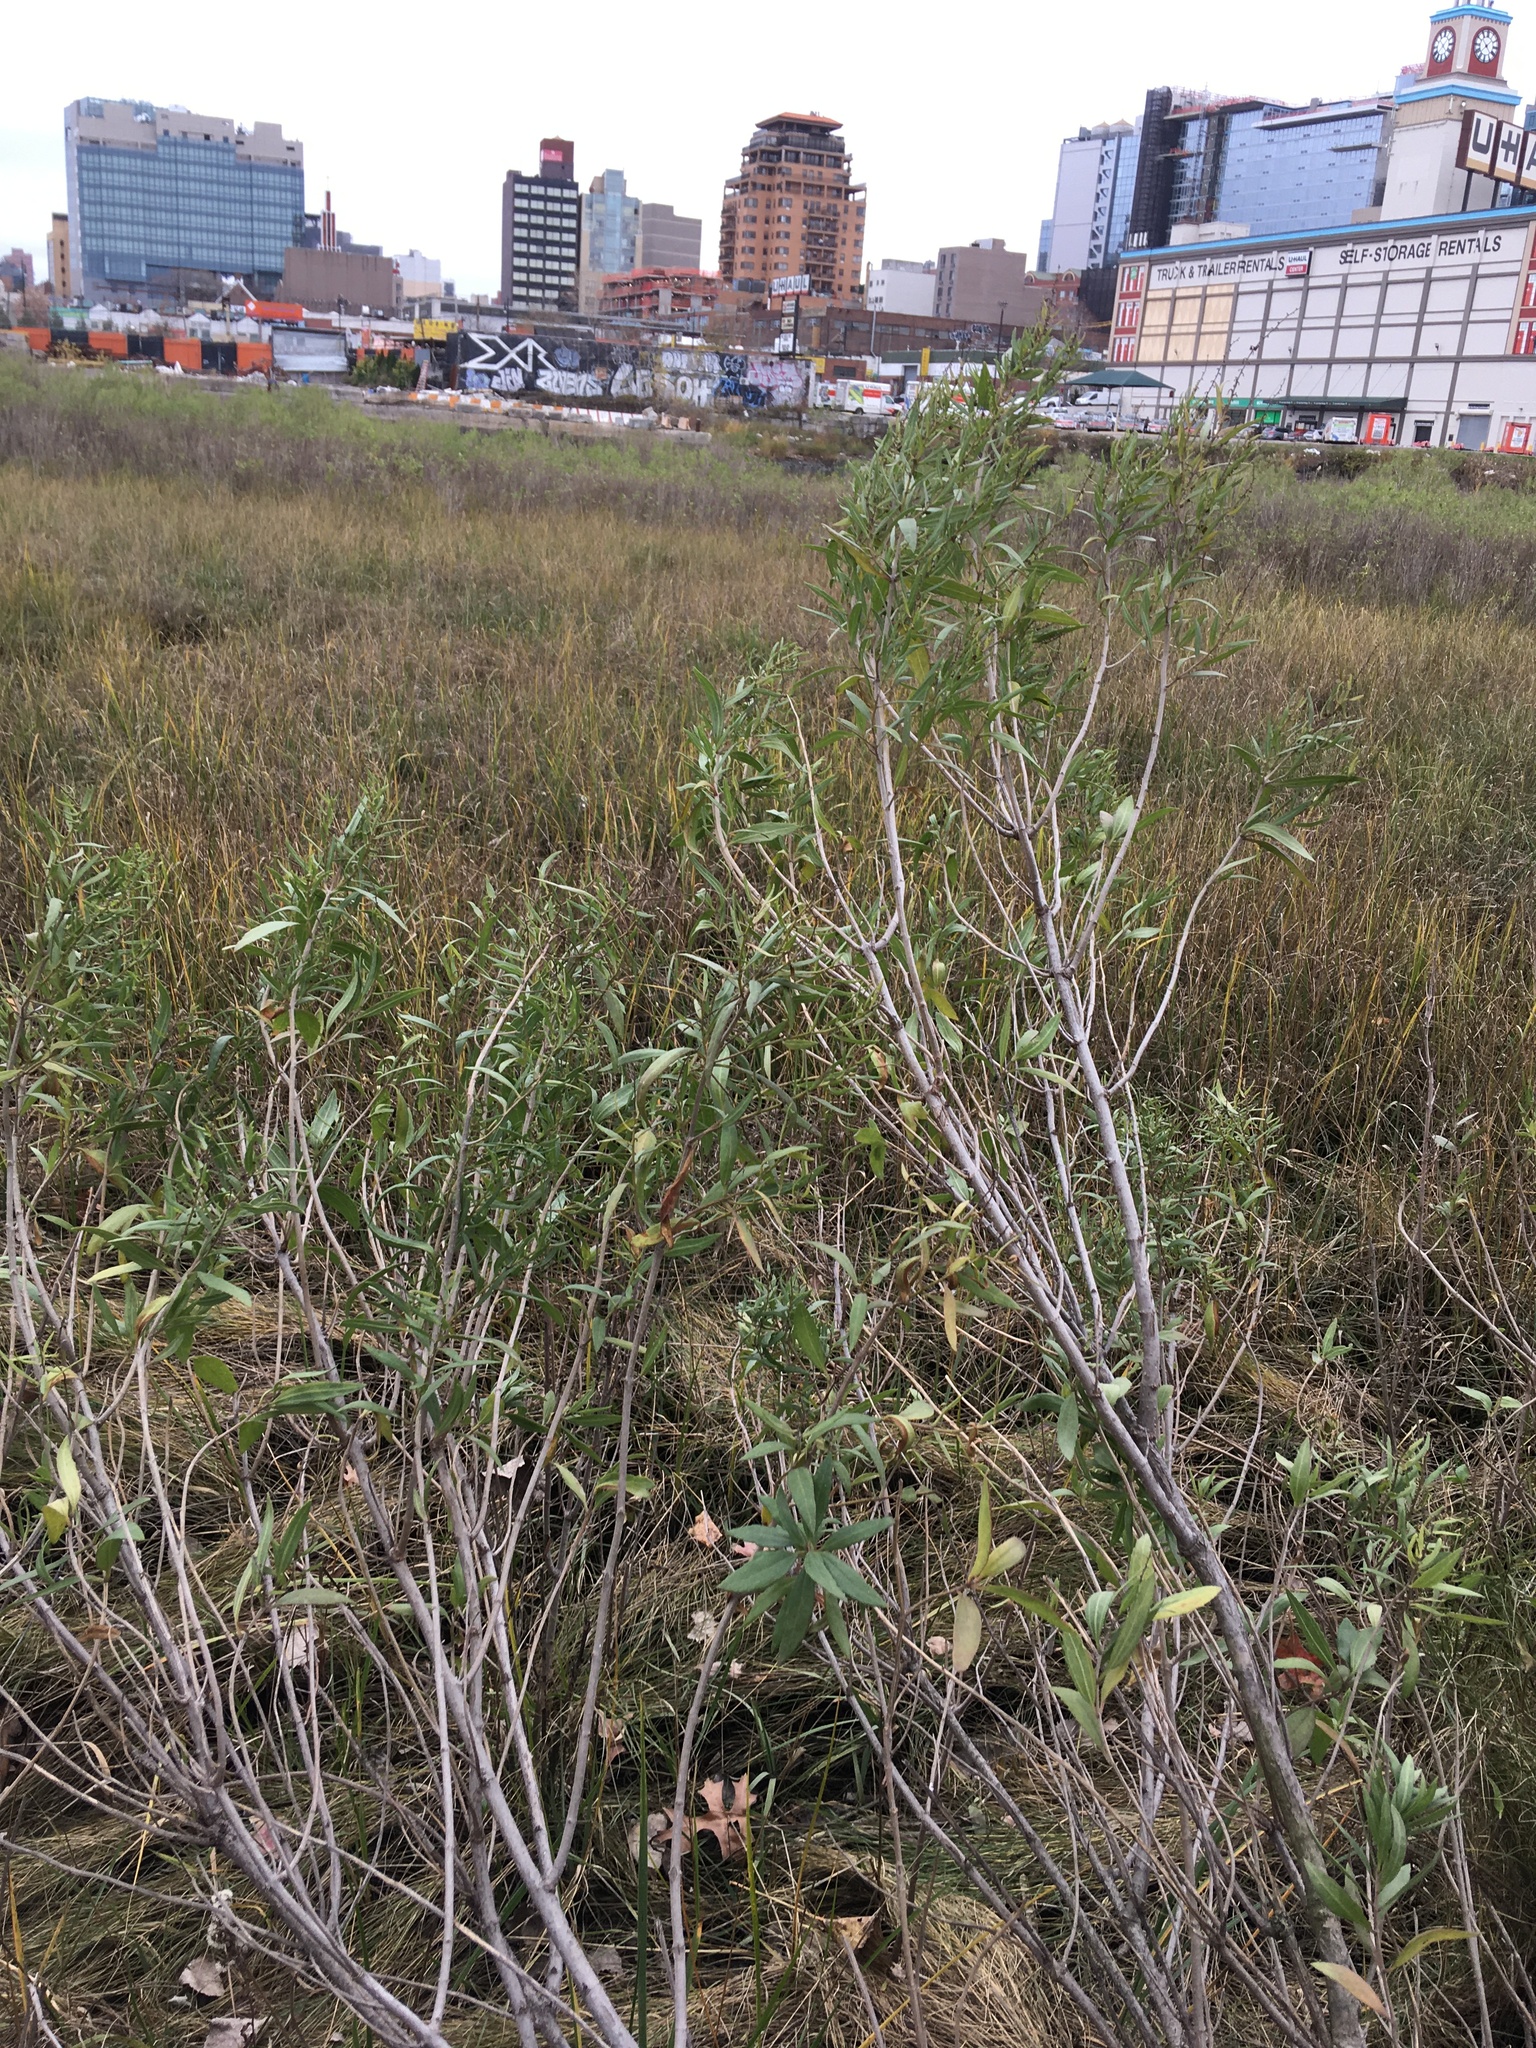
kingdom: Plantae
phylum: Tracheophyta
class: Magnoliopsida
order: Asterales
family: Asteraceae
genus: Iva
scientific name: Iva frutescens
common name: Big-leaved marsh-elder
